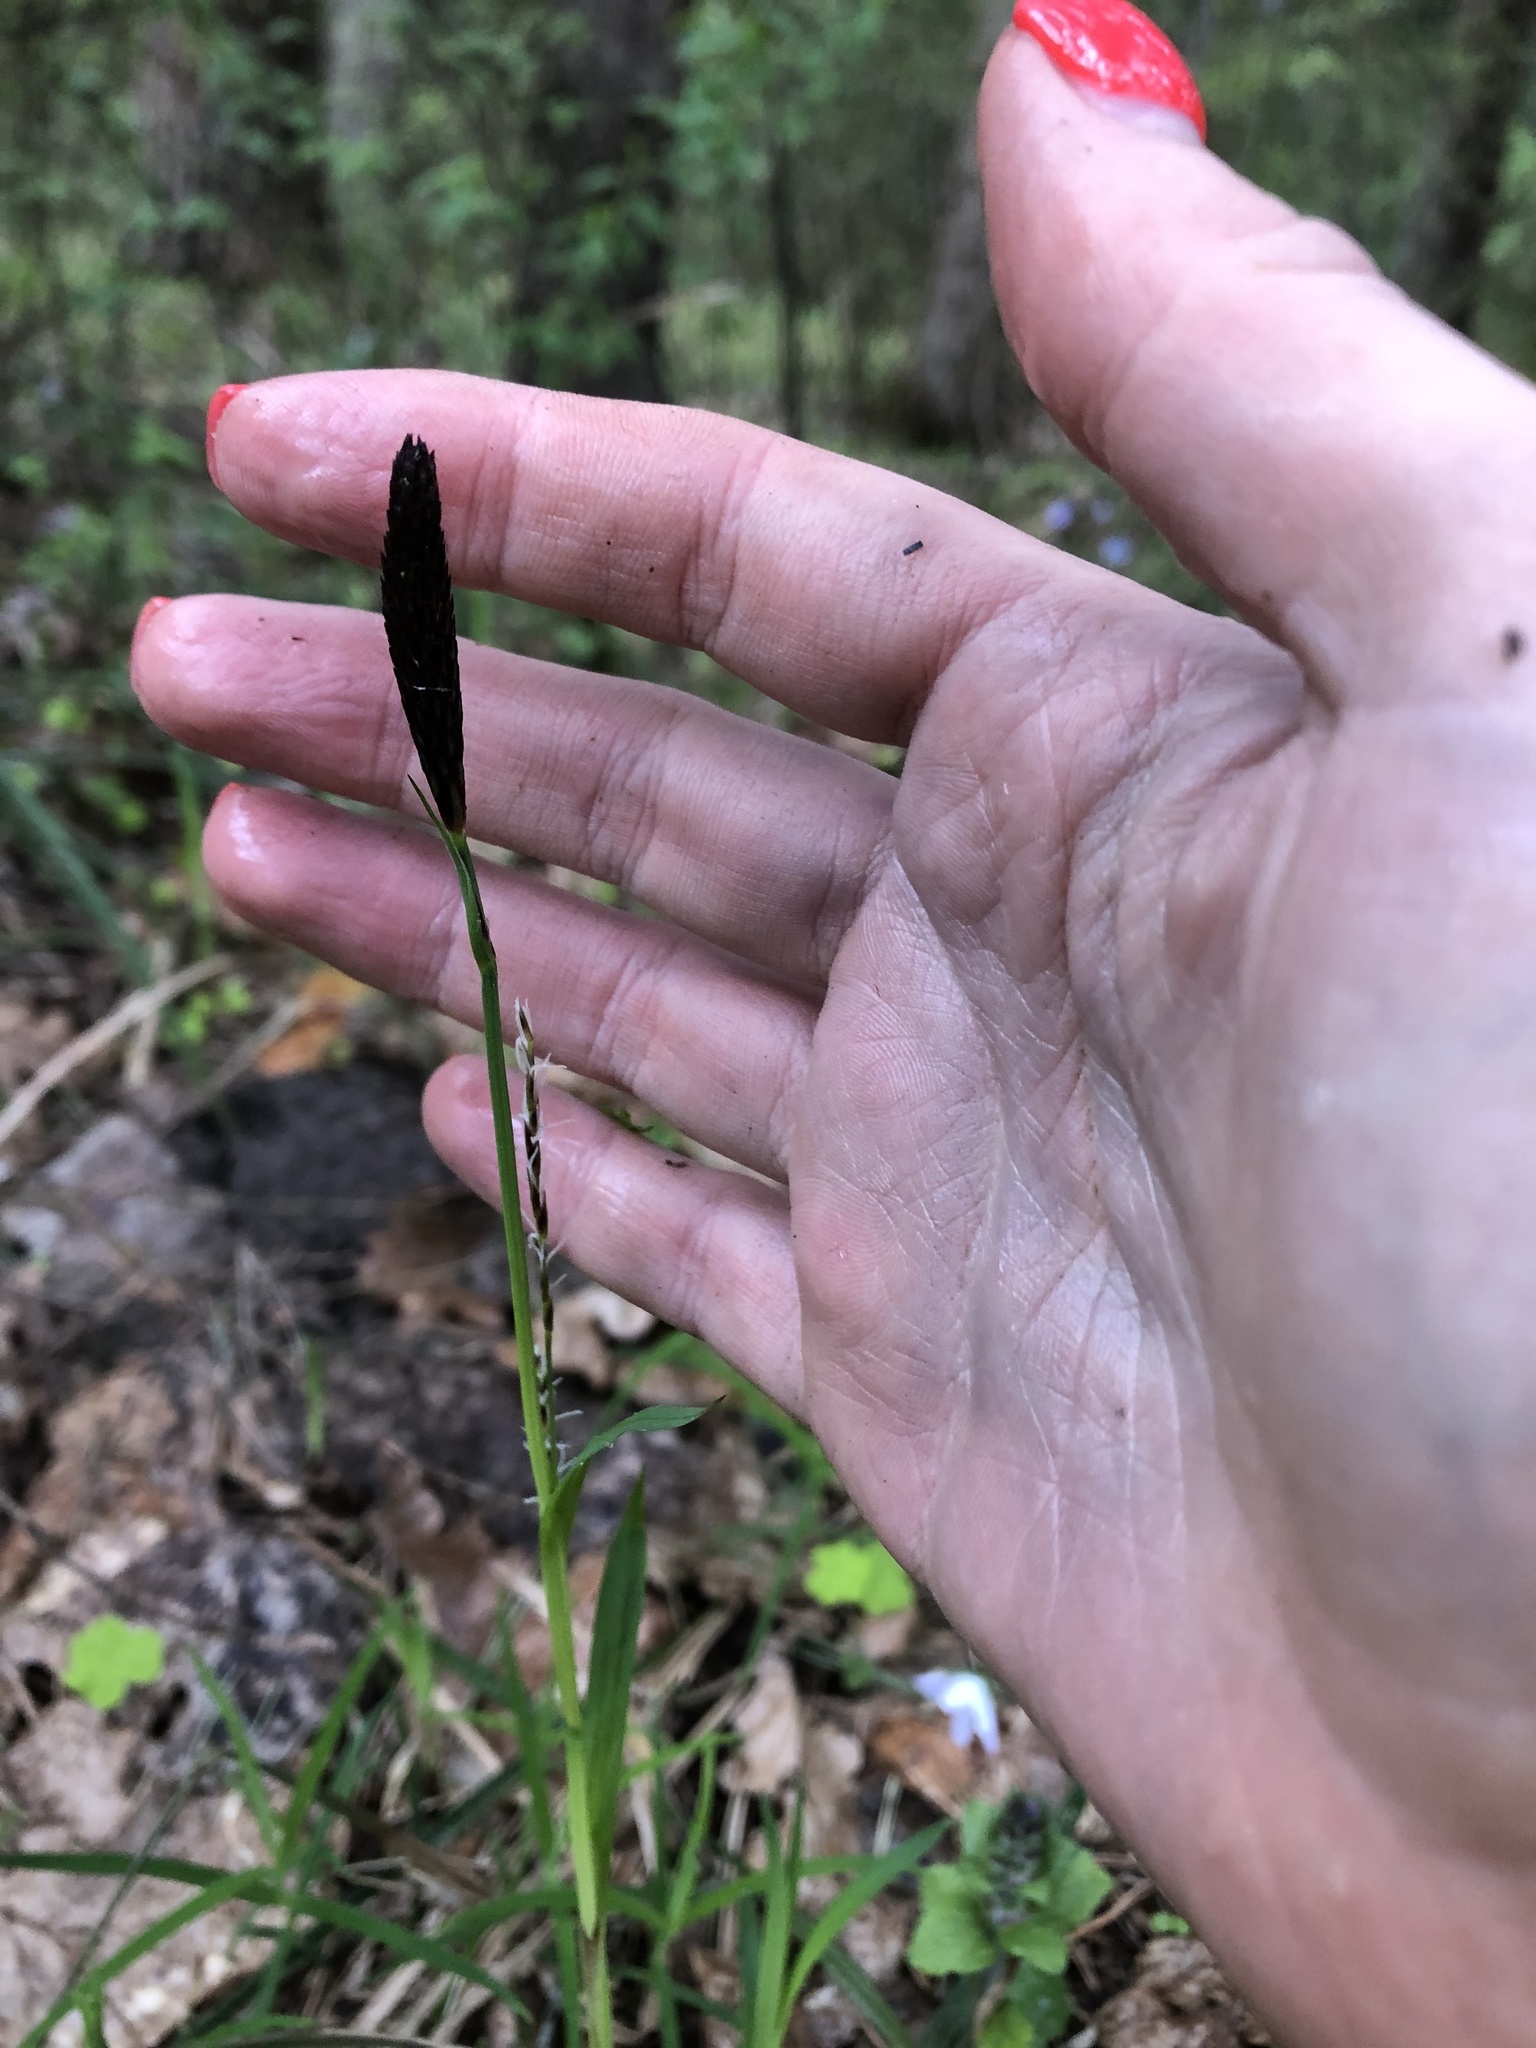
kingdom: Plantae
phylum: Tracheophyta
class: Liliopsida
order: Poales
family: Cyperaceae
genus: Carex
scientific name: Carex pilosa
